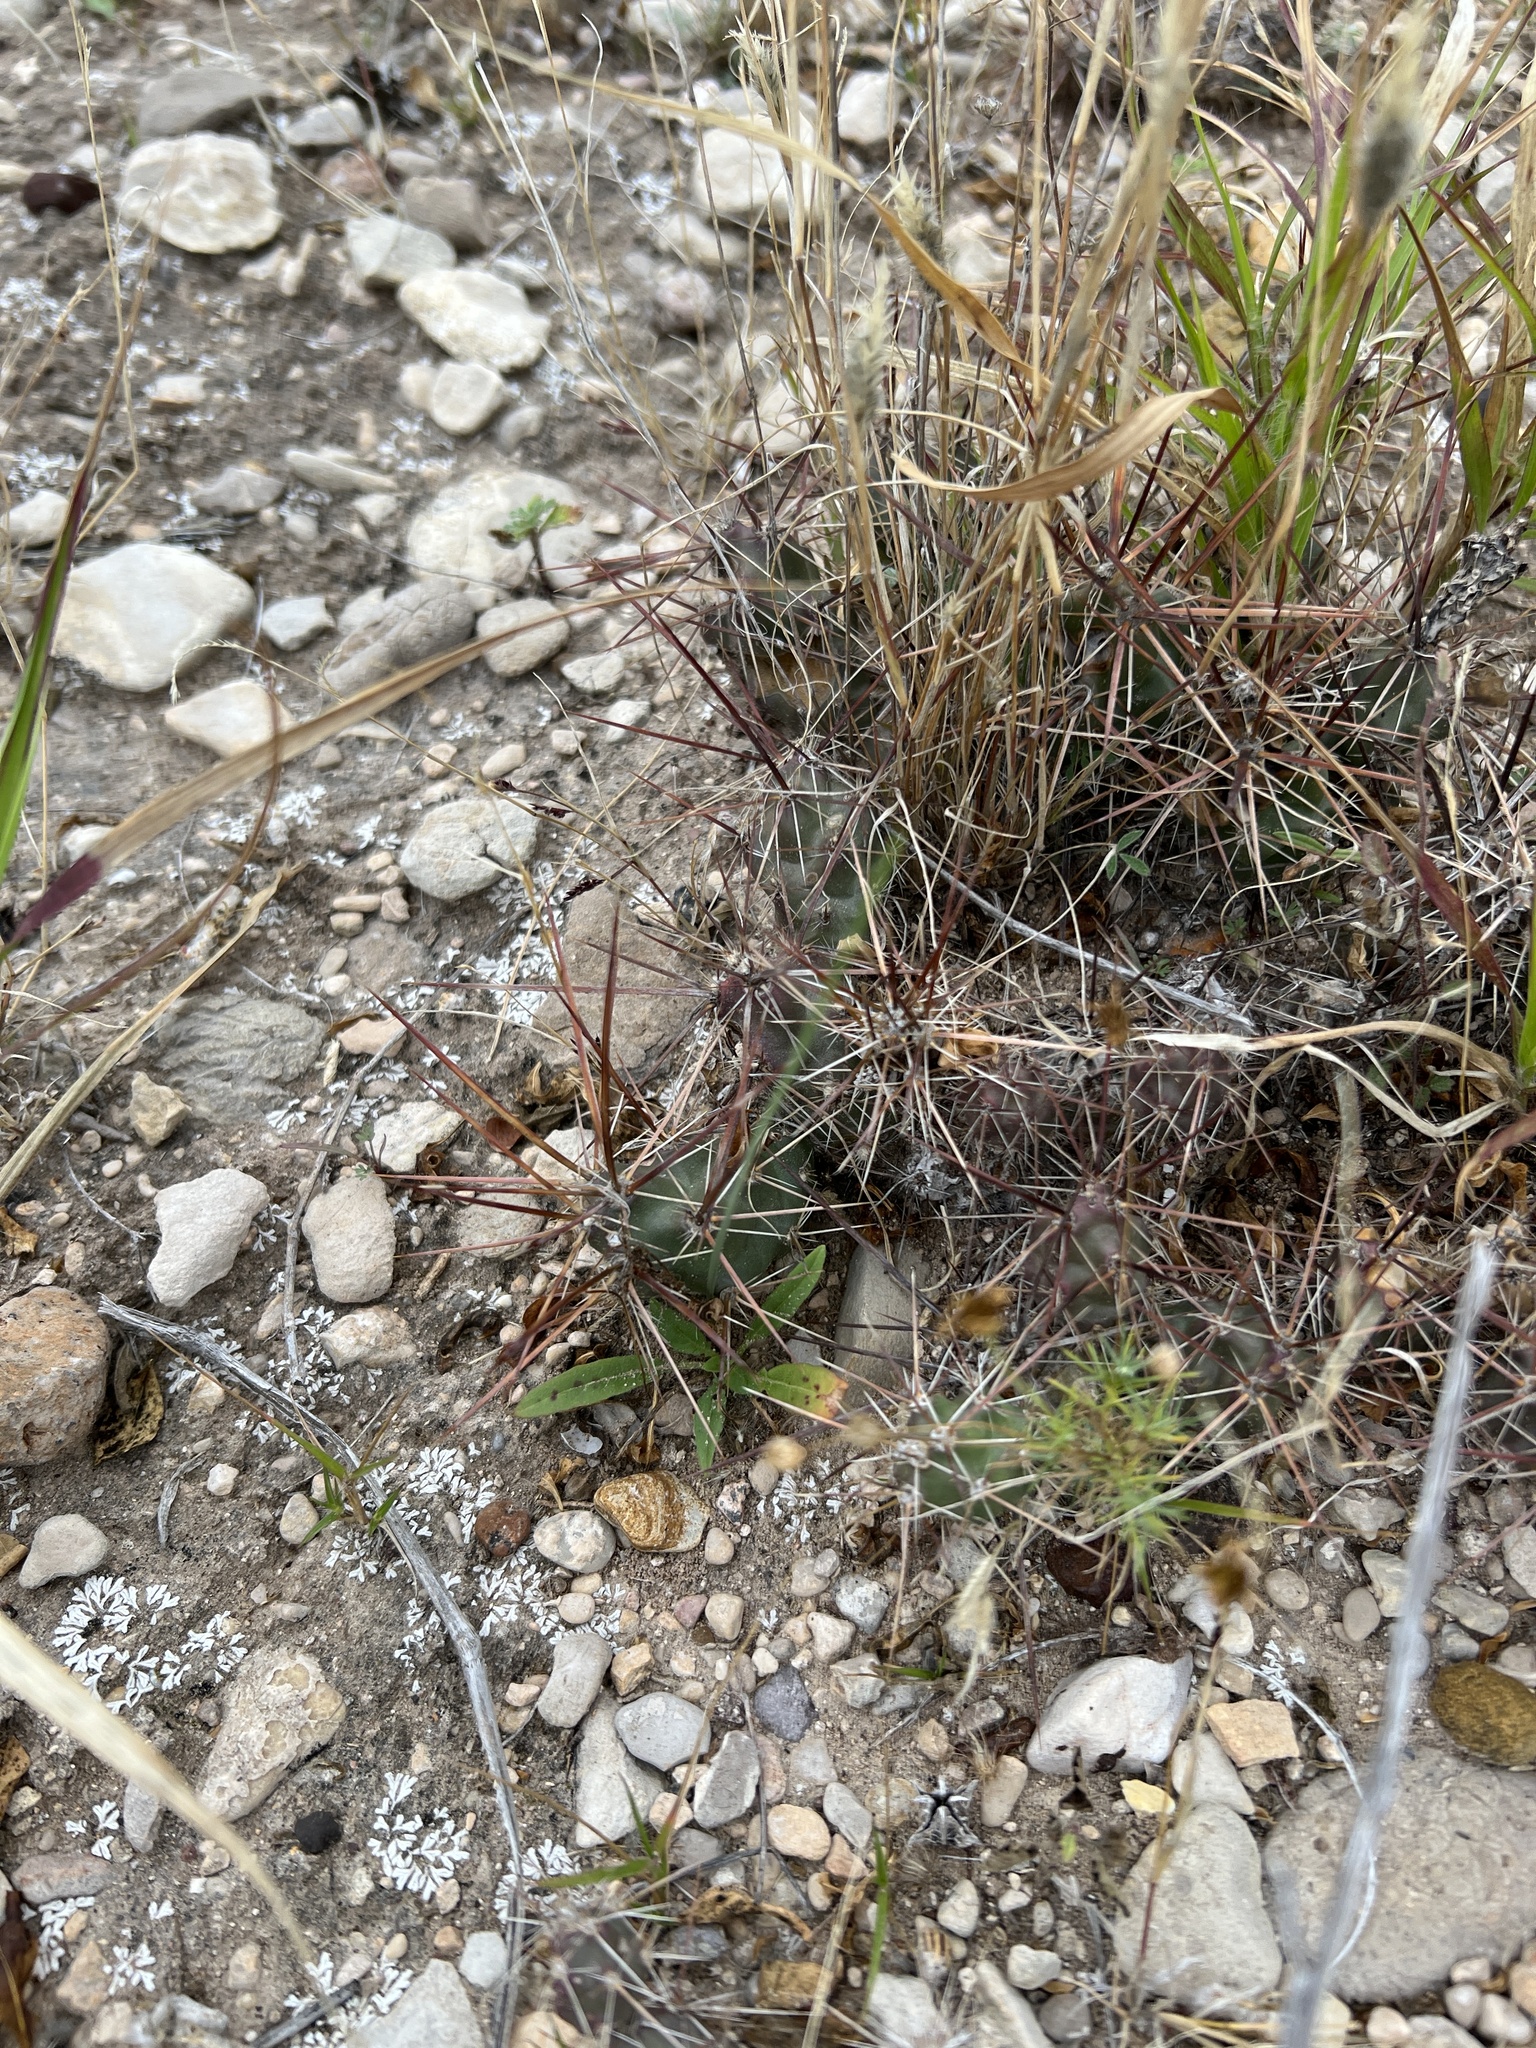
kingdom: Plantae
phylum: Tracheophyta
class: Magnoliopsida
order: Caryophyllales
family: Cactaceae
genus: Grusonia
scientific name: Grusonia schottii
